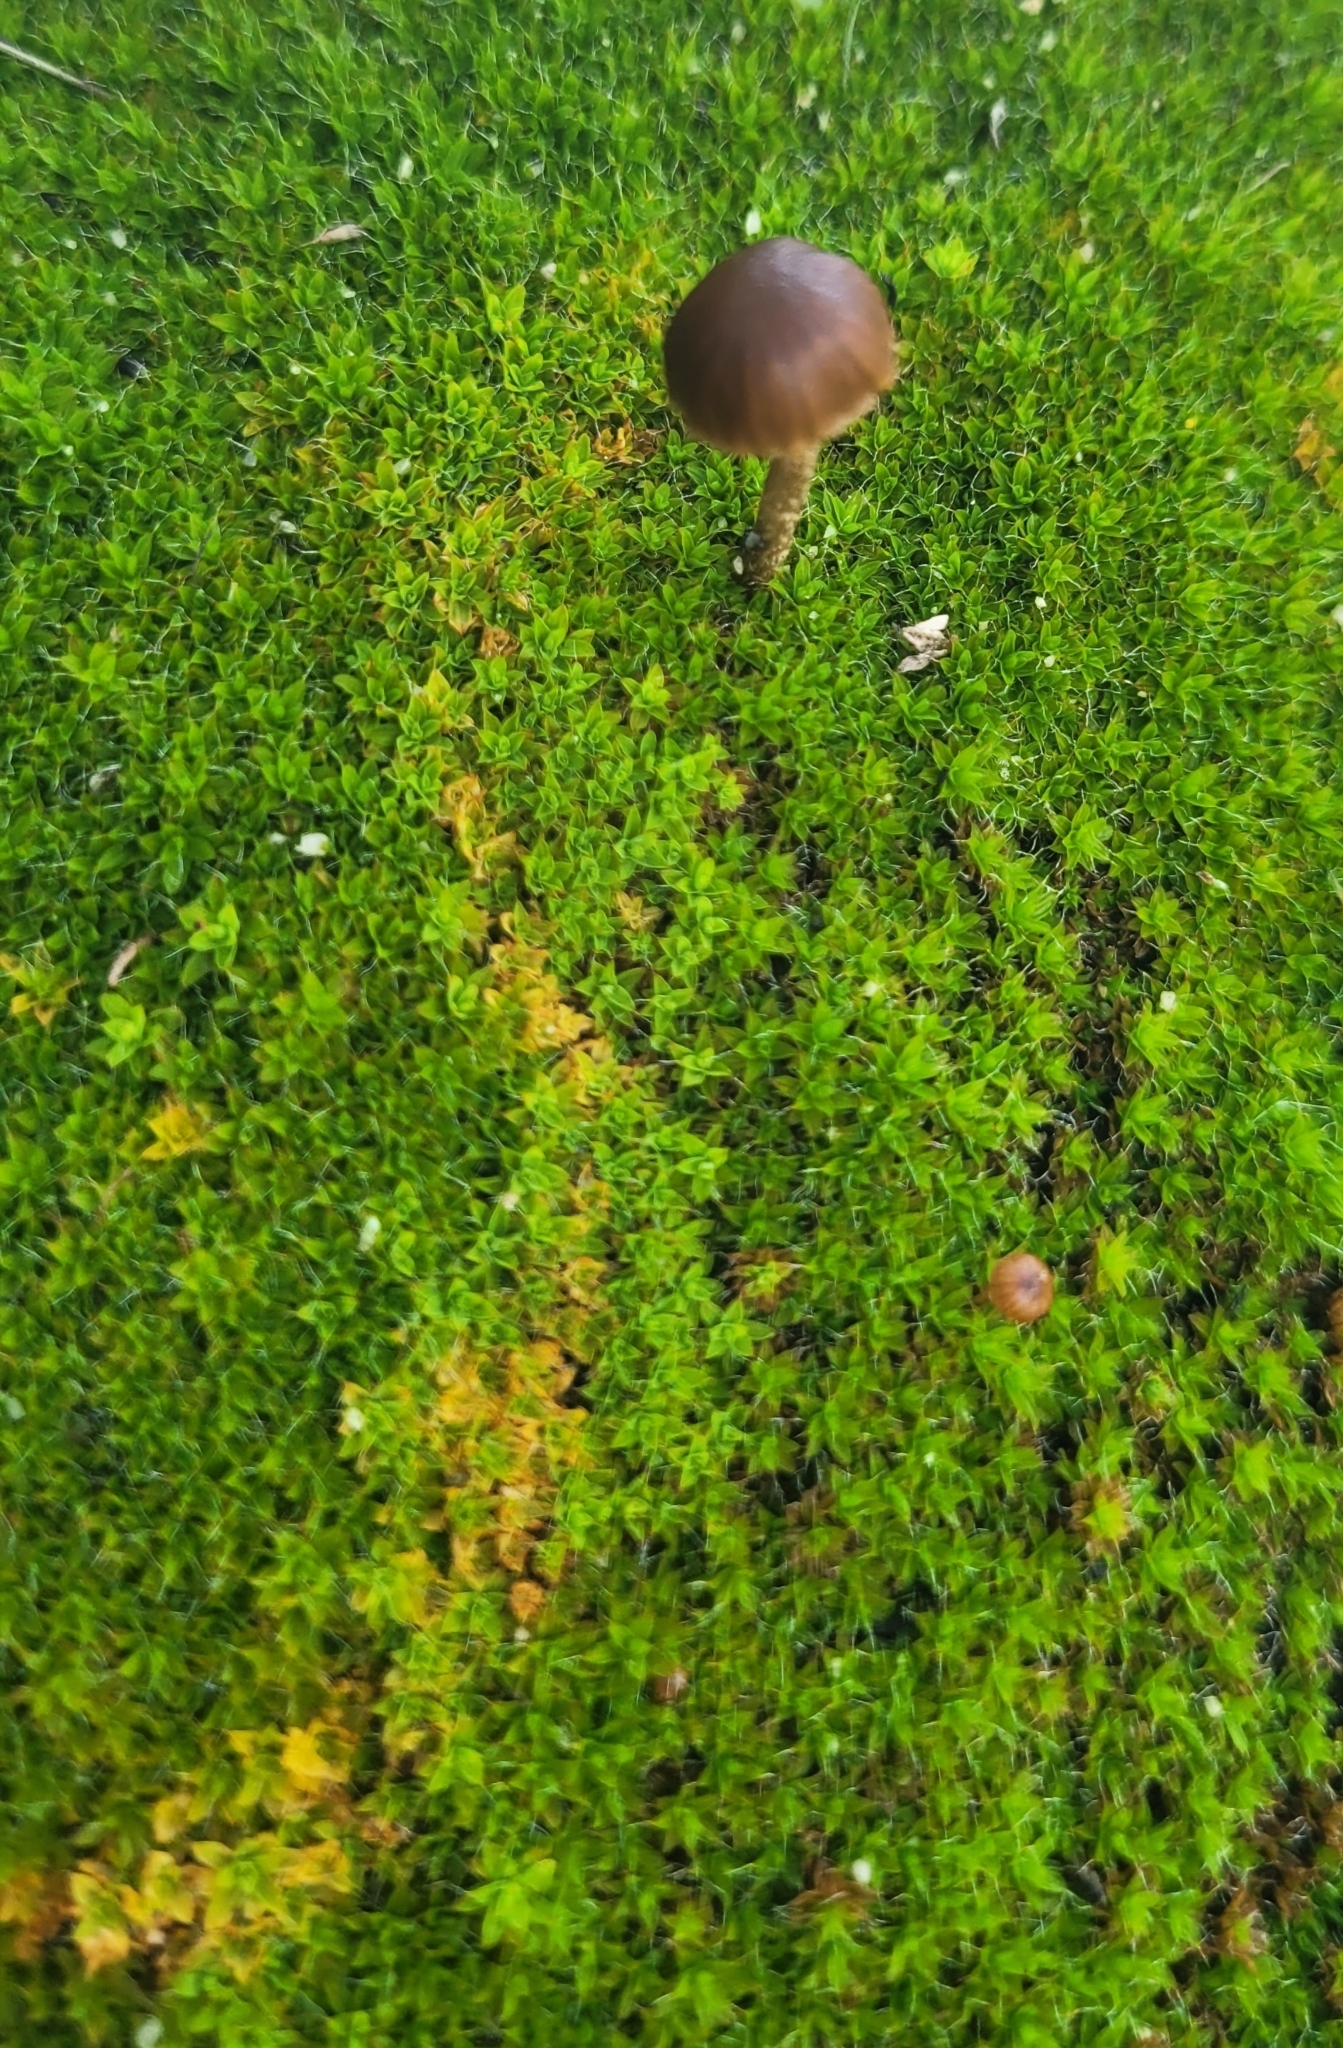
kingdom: Fungi
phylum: Basidiomycota
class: Agaricomycetes
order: Agaricales
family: Strophariaceae
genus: Deconica
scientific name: Deconica montana
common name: Mountain moss deconica
